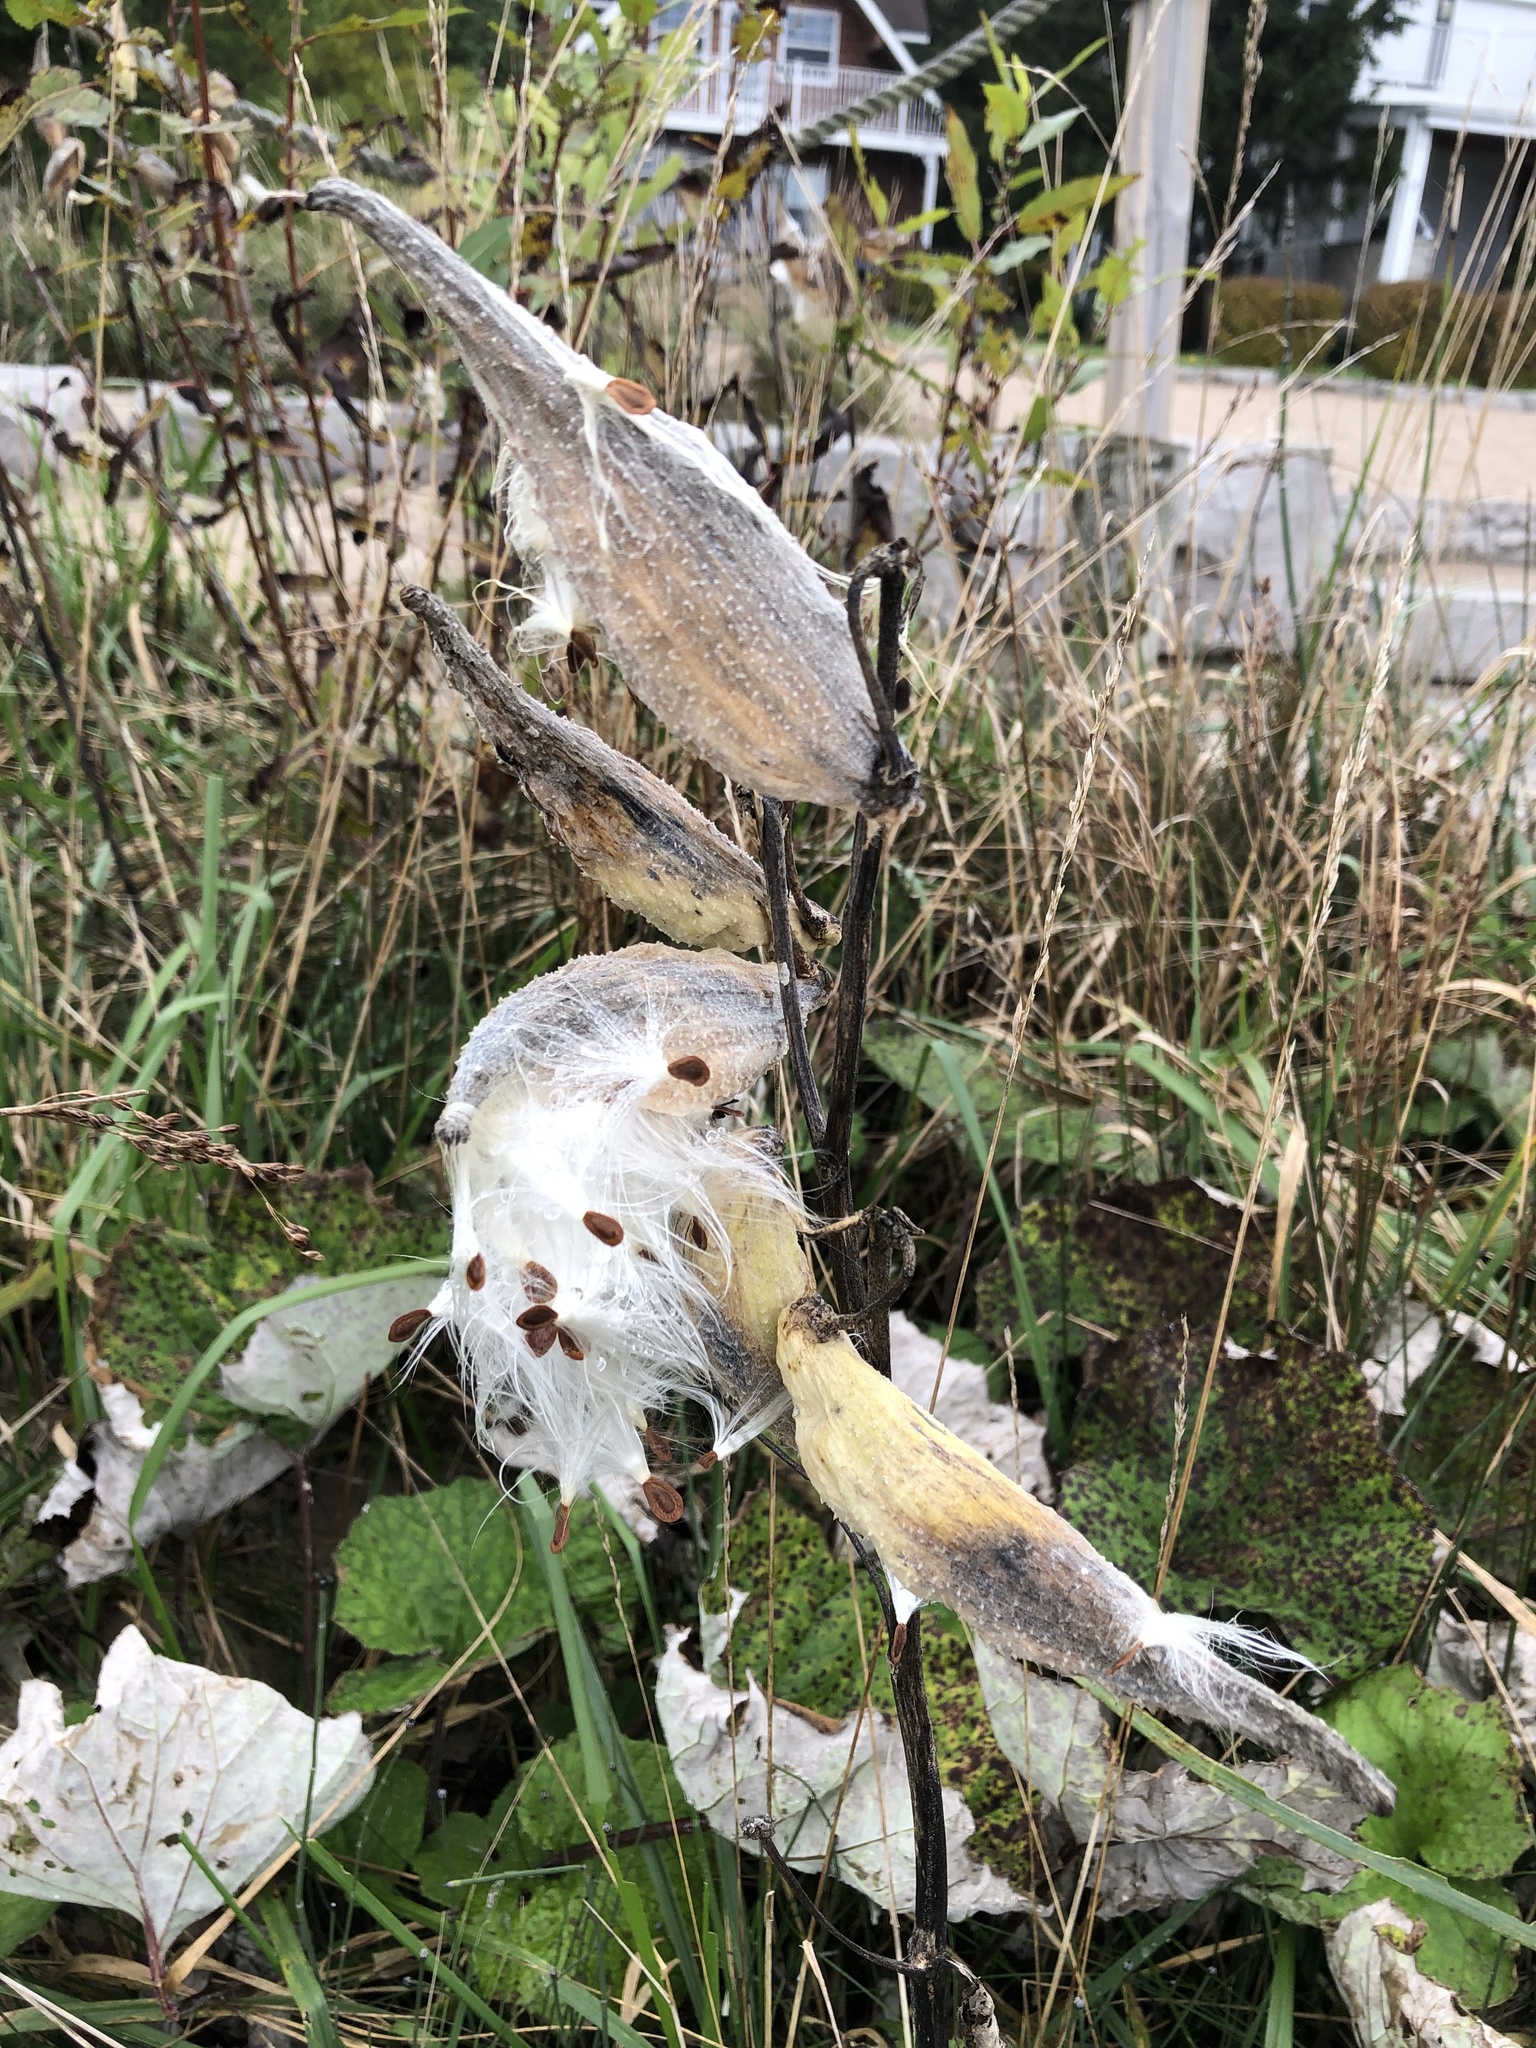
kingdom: Plantae
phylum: Tracheophyta
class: Magnoliopsida
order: Gentianales
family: Apocynaceae
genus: Asclepias
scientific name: Asclepias syriaca
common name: Common milkweed
